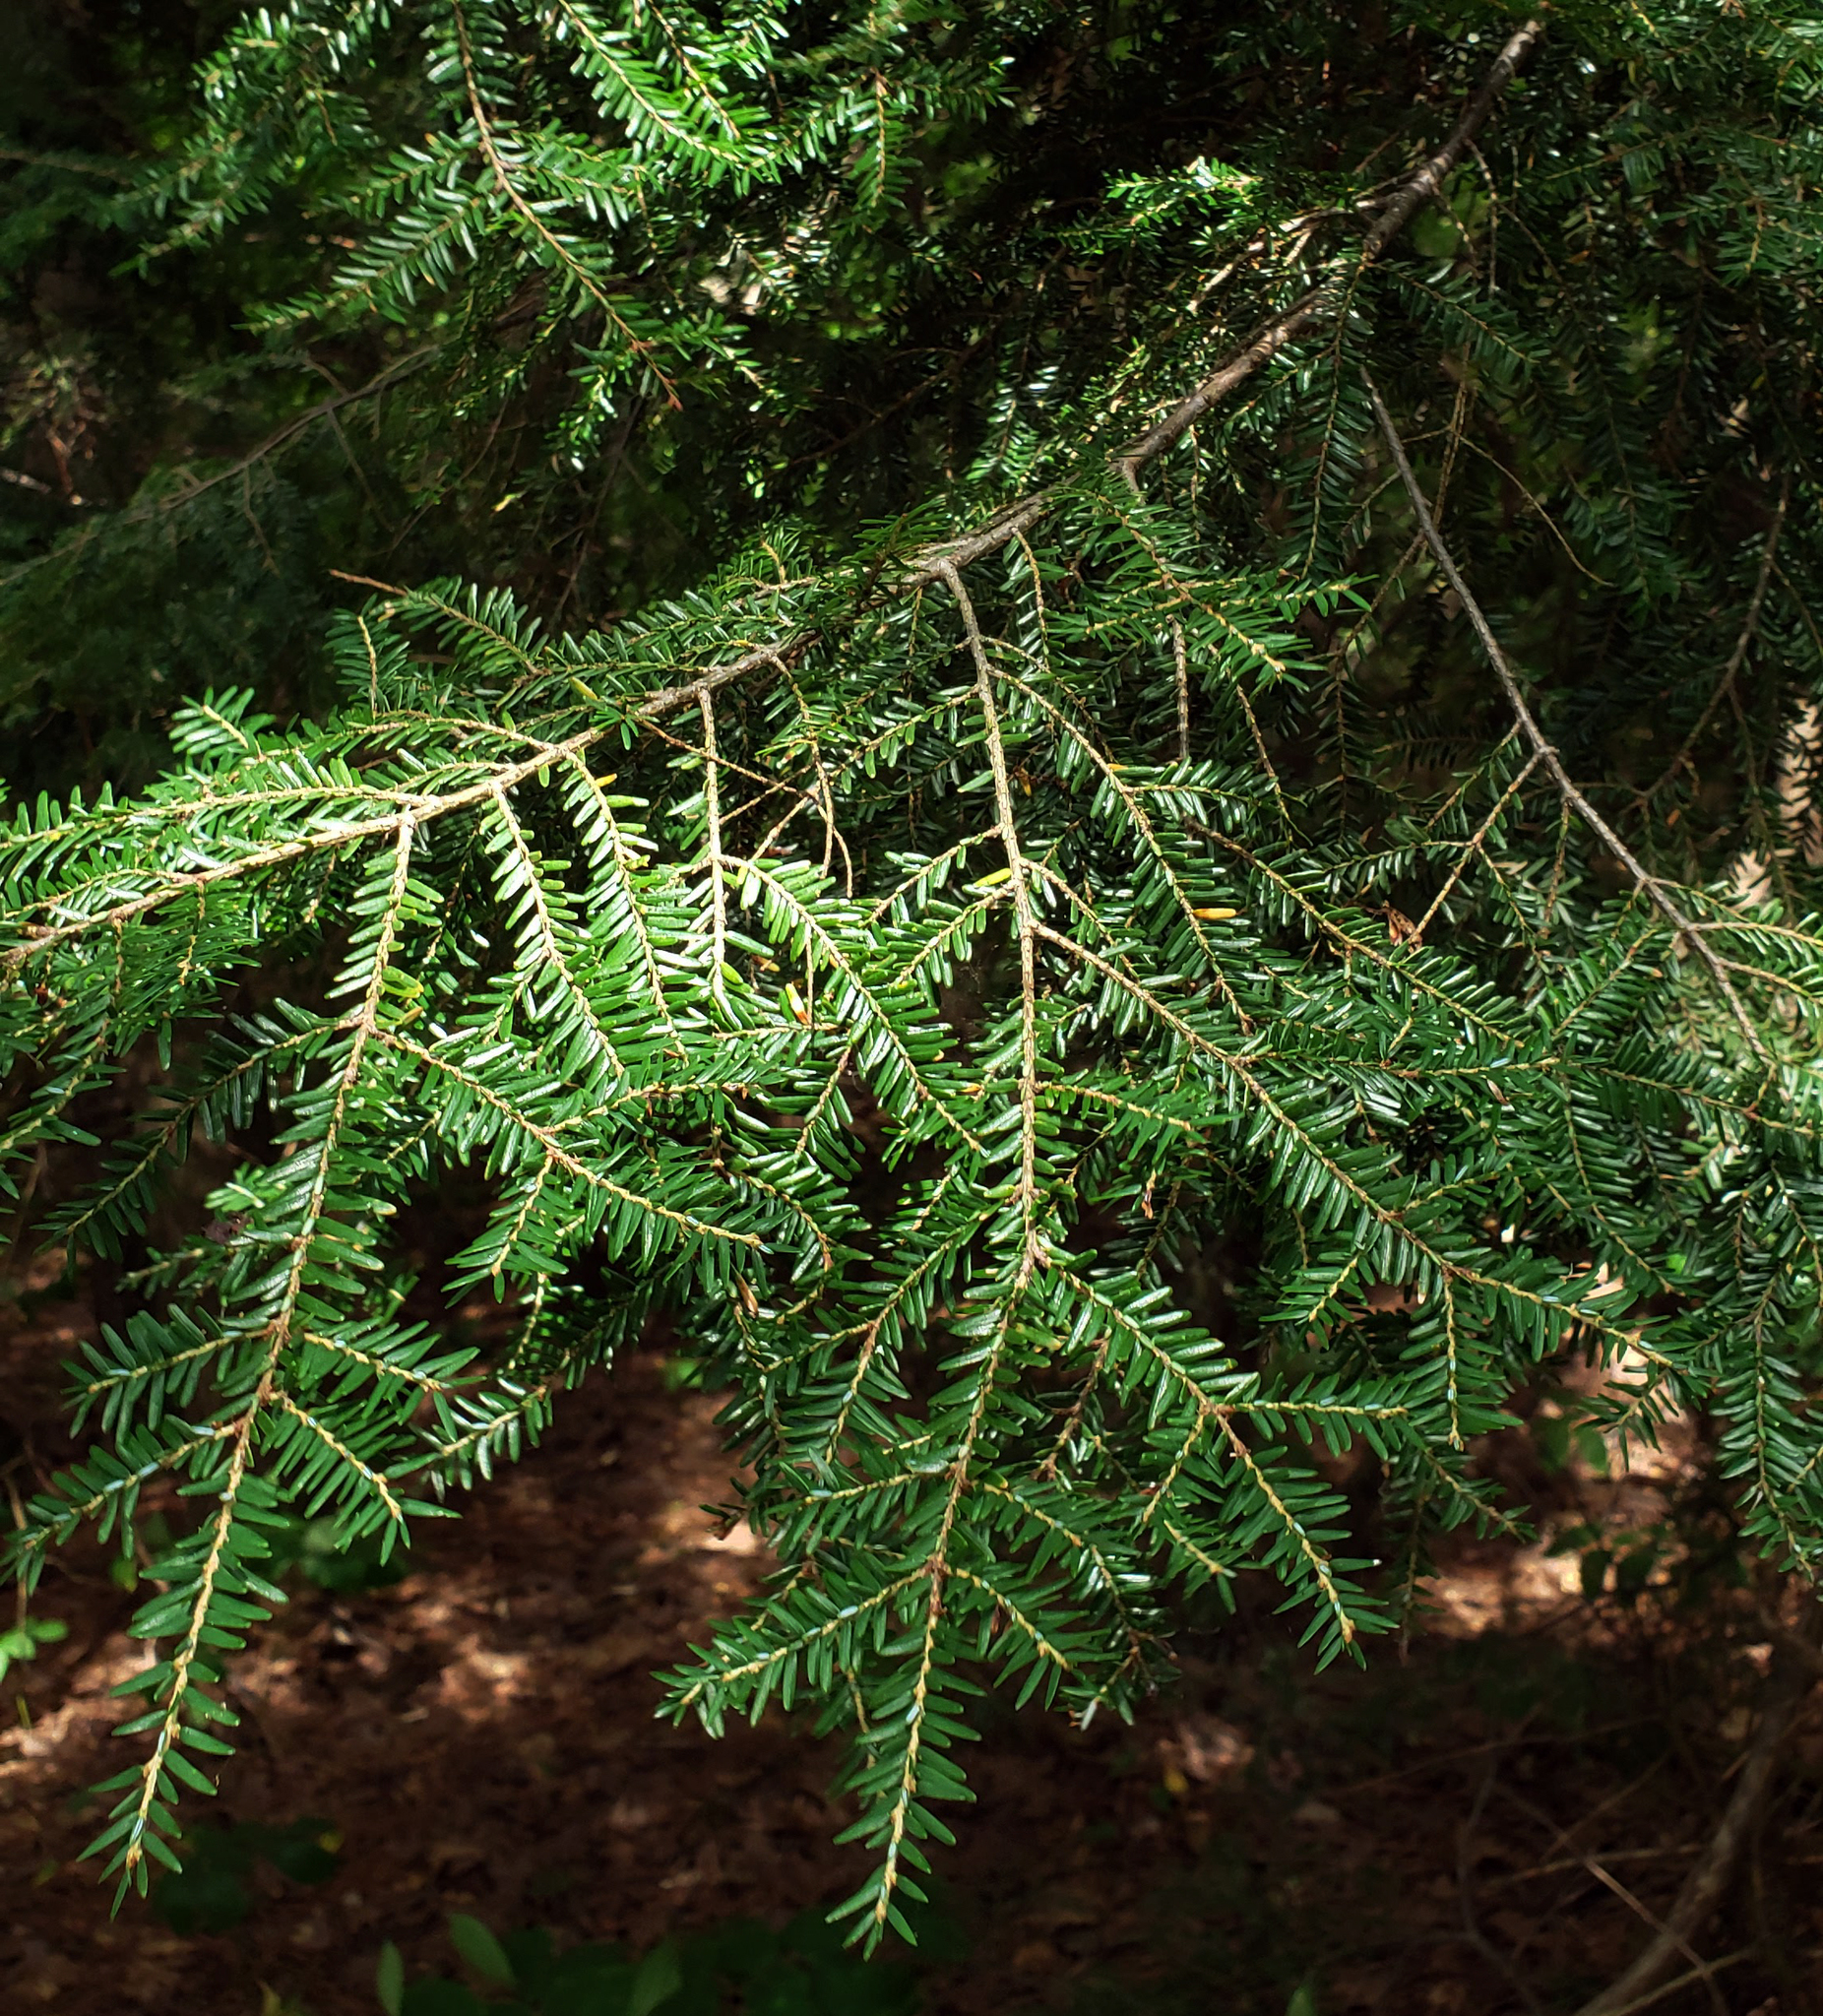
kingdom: Plantae
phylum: Tracheophyta
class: Pinopsida
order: Pinales
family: Pinaceae
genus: Tsuga
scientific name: Tsuga canadensis
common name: Eastern hemlock
